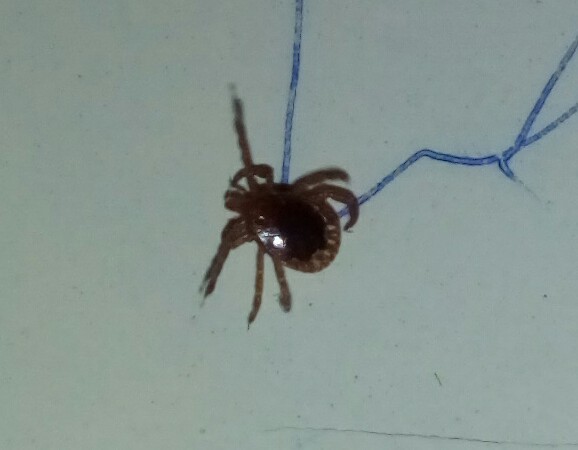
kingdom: Animalia
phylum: Arthropoda
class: Arachnida
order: Ixodida
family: Ixodidae
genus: Amblyomma
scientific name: Amblyomma americanum
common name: Lone star tick
